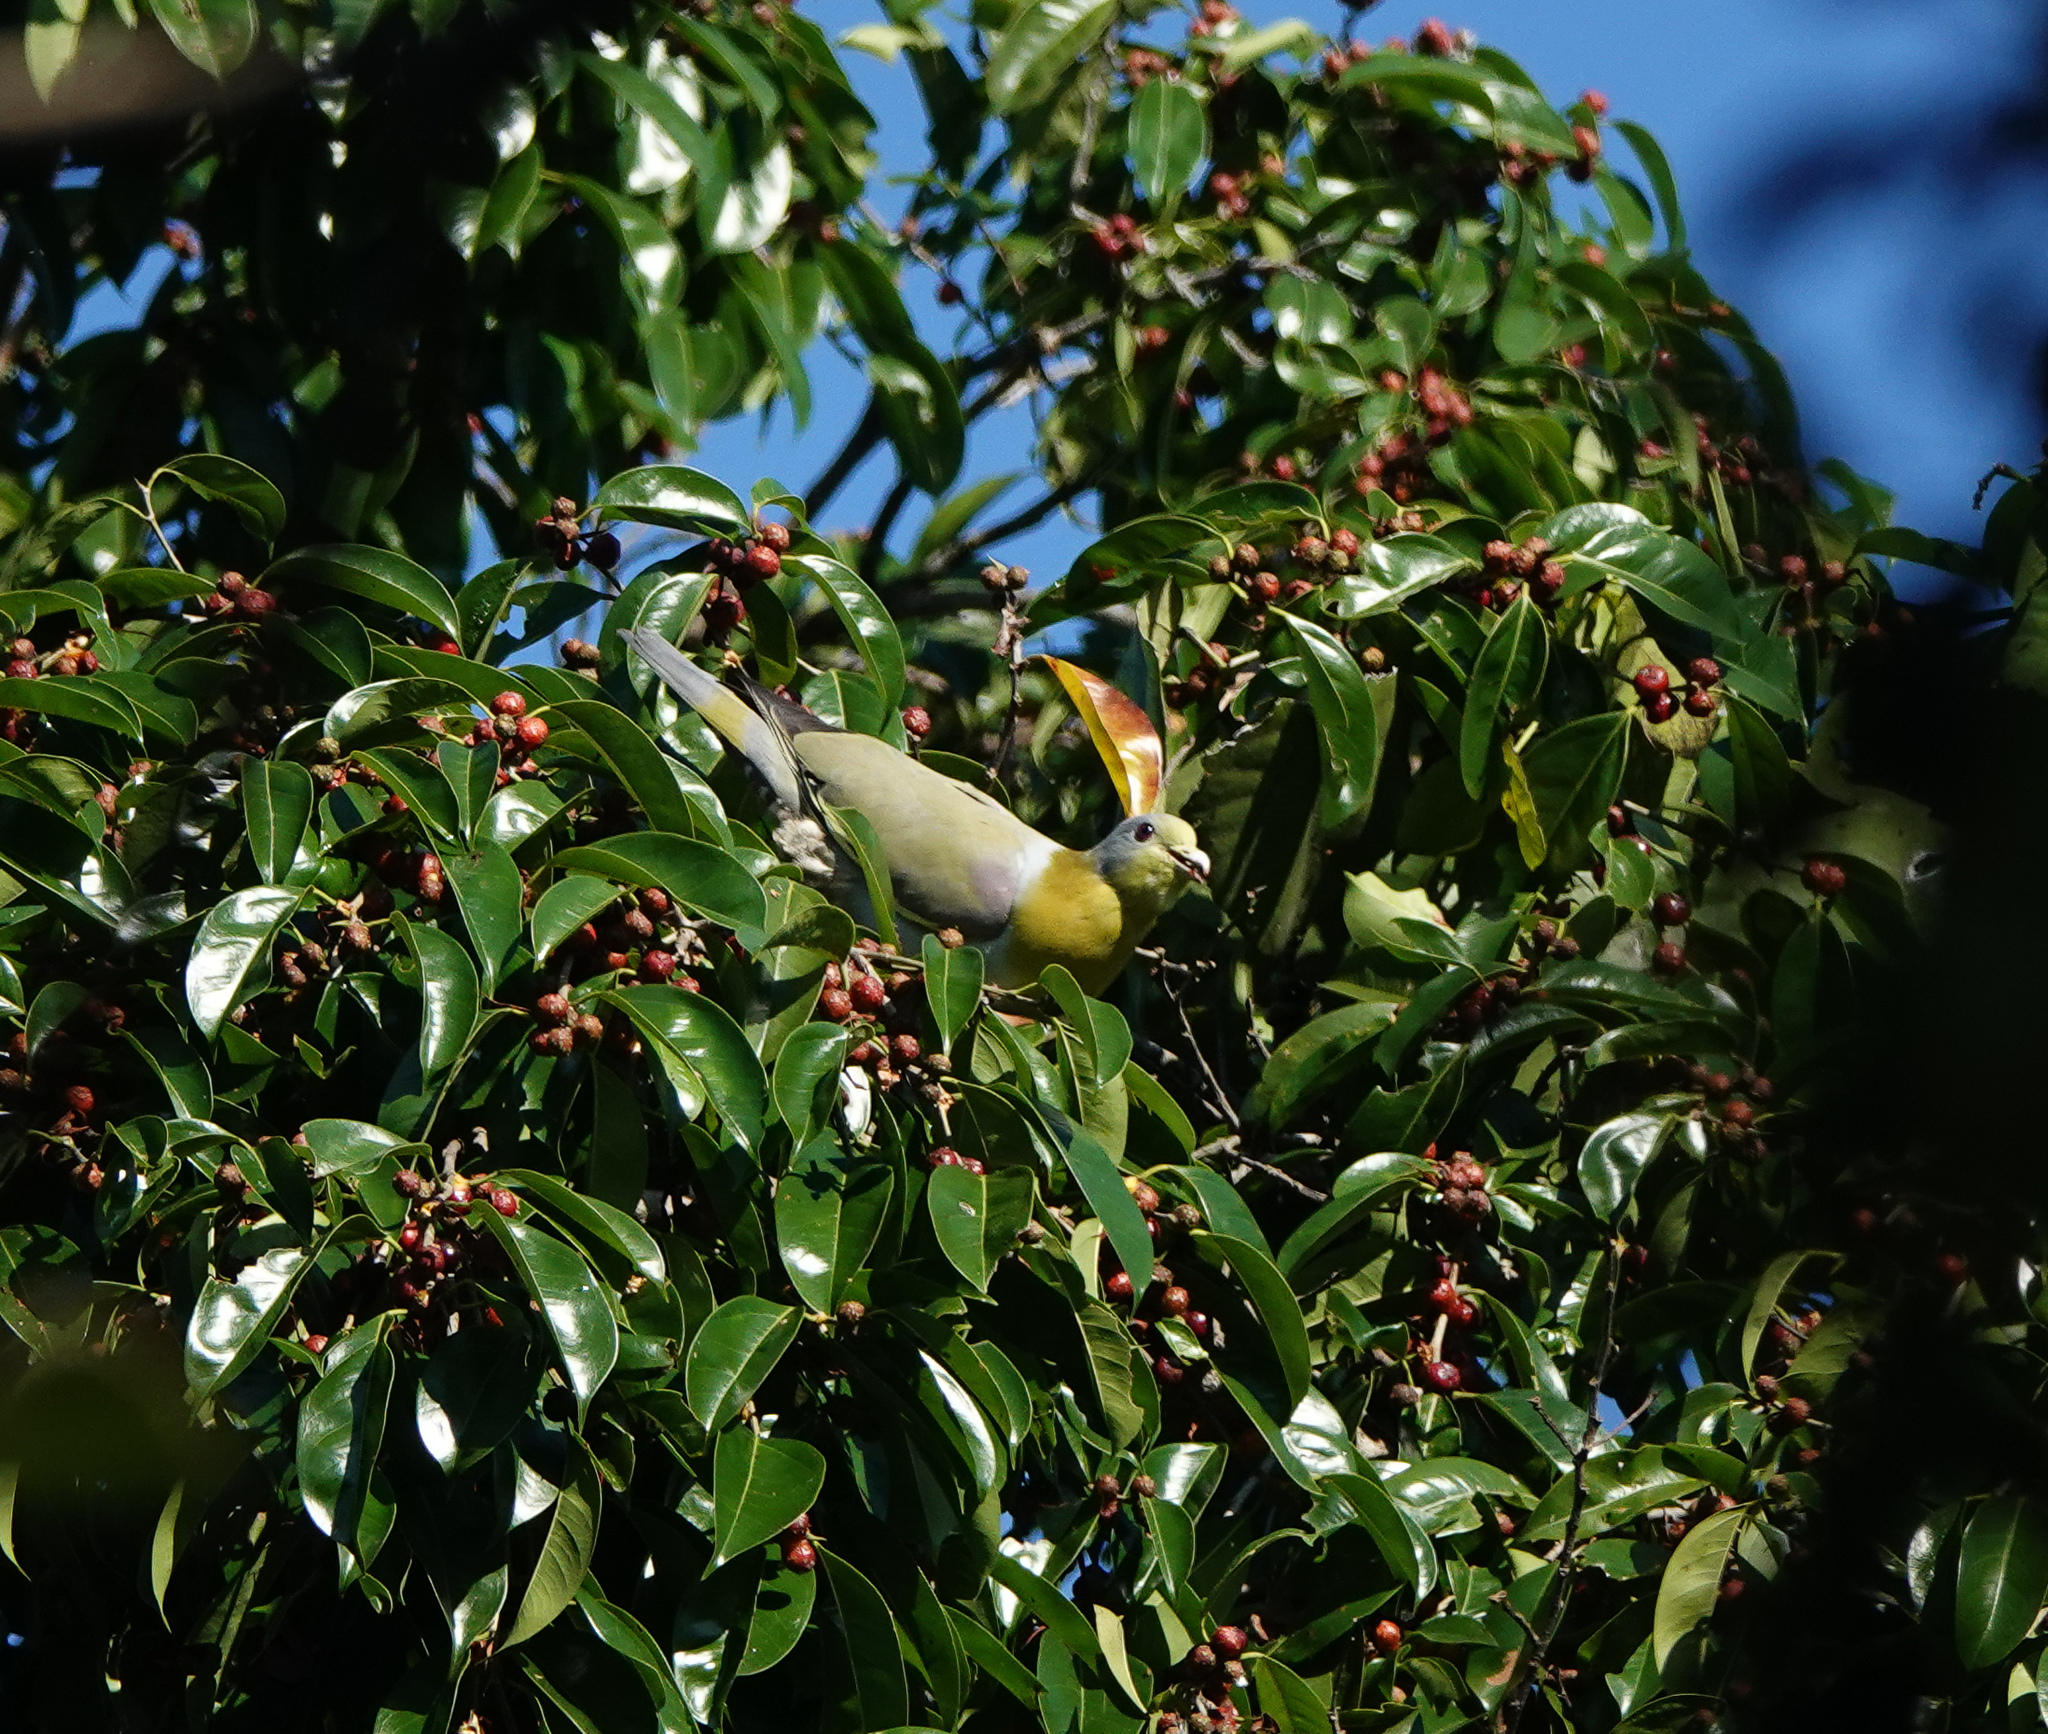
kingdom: Animalia
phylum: Chordata
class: Aves
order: Columbiformes
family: Columbidae
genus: Treron
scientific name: Treron phoenicopterus
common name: Yellow-footed green pigeon
